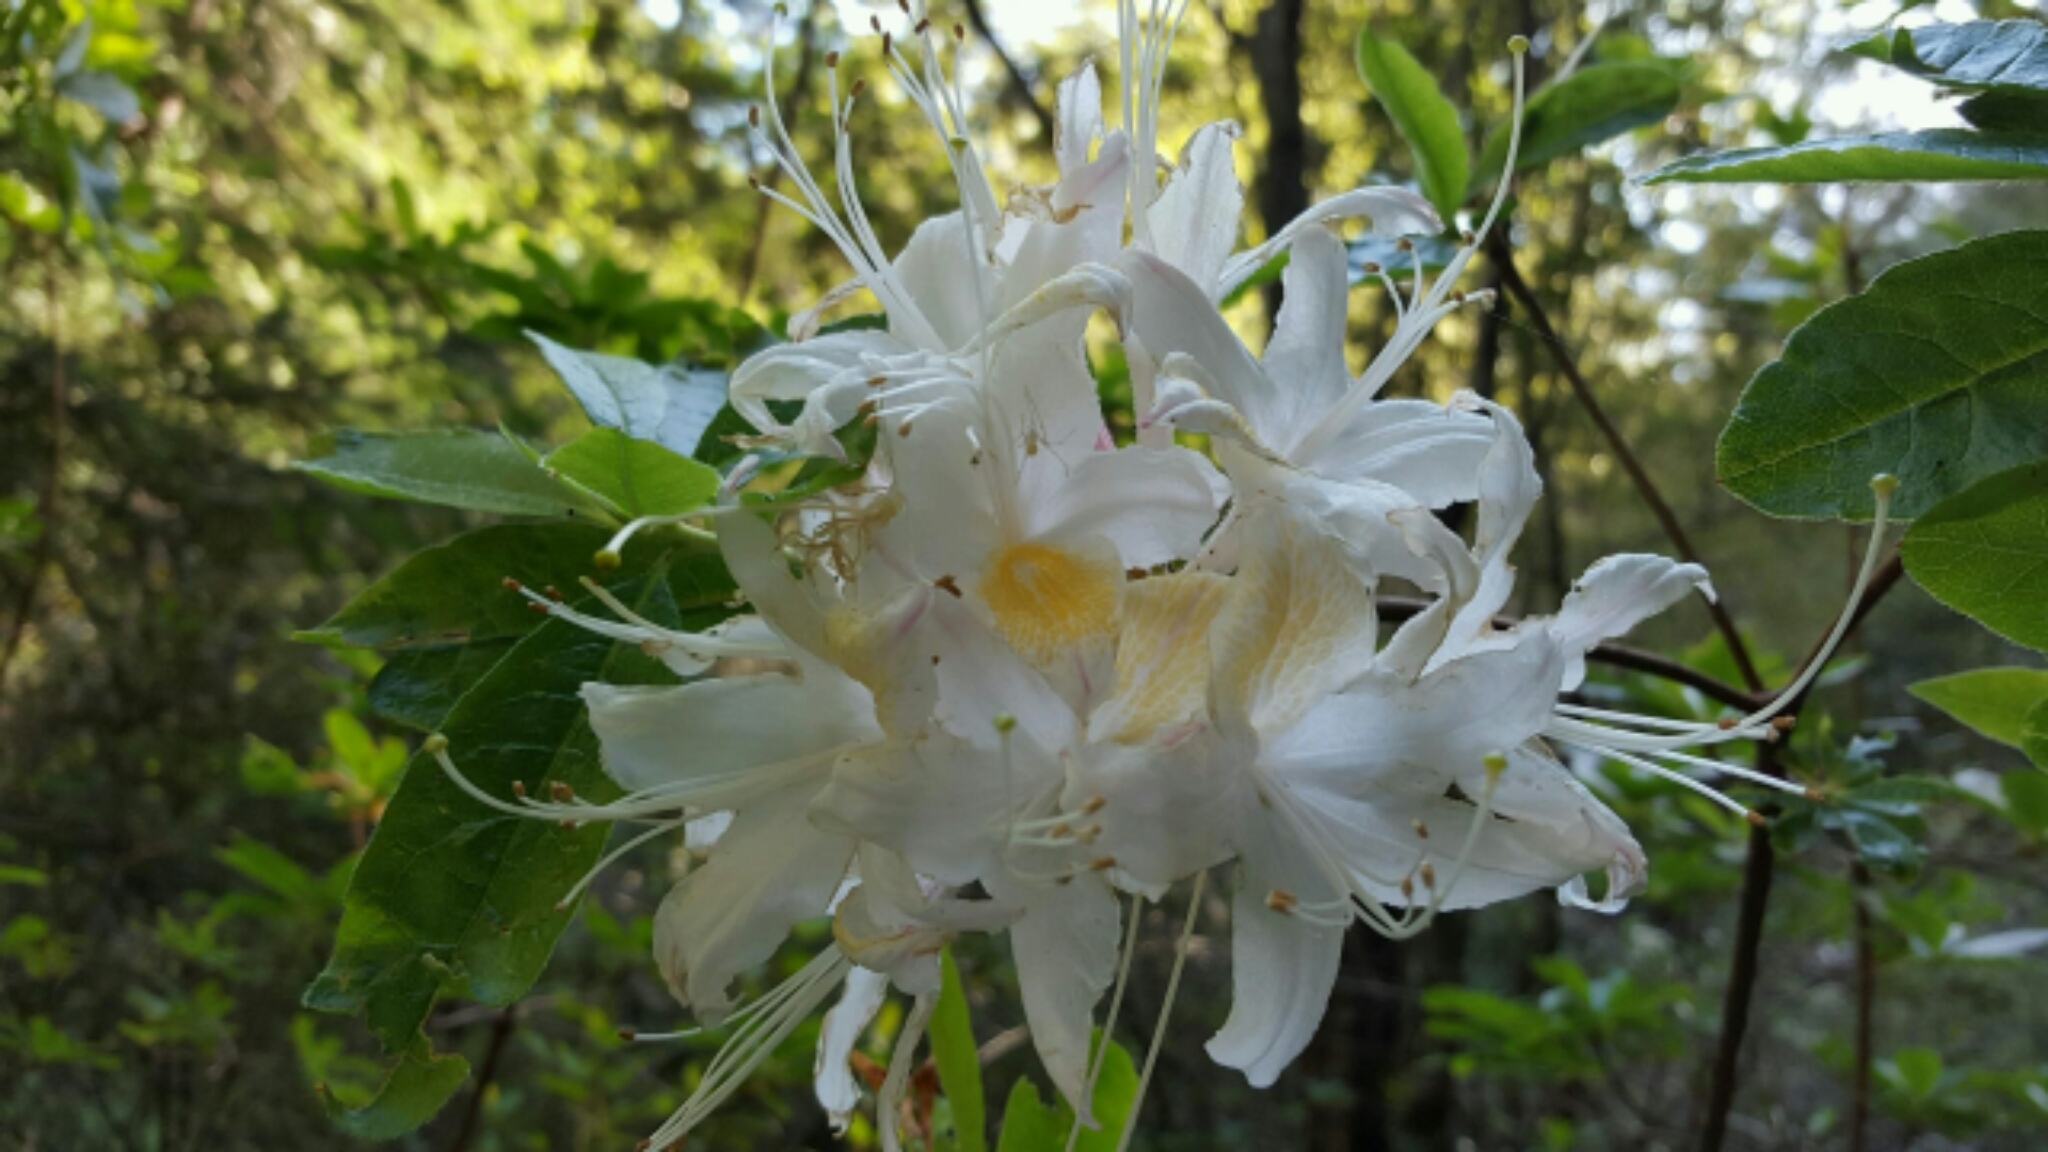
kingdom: Plantae
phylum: Tracheophyta
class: Magnoliopsida
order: Ericales
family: Ericaceae
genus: Rhododendron
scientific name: Rhododendron occidentale
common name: Western azalea
